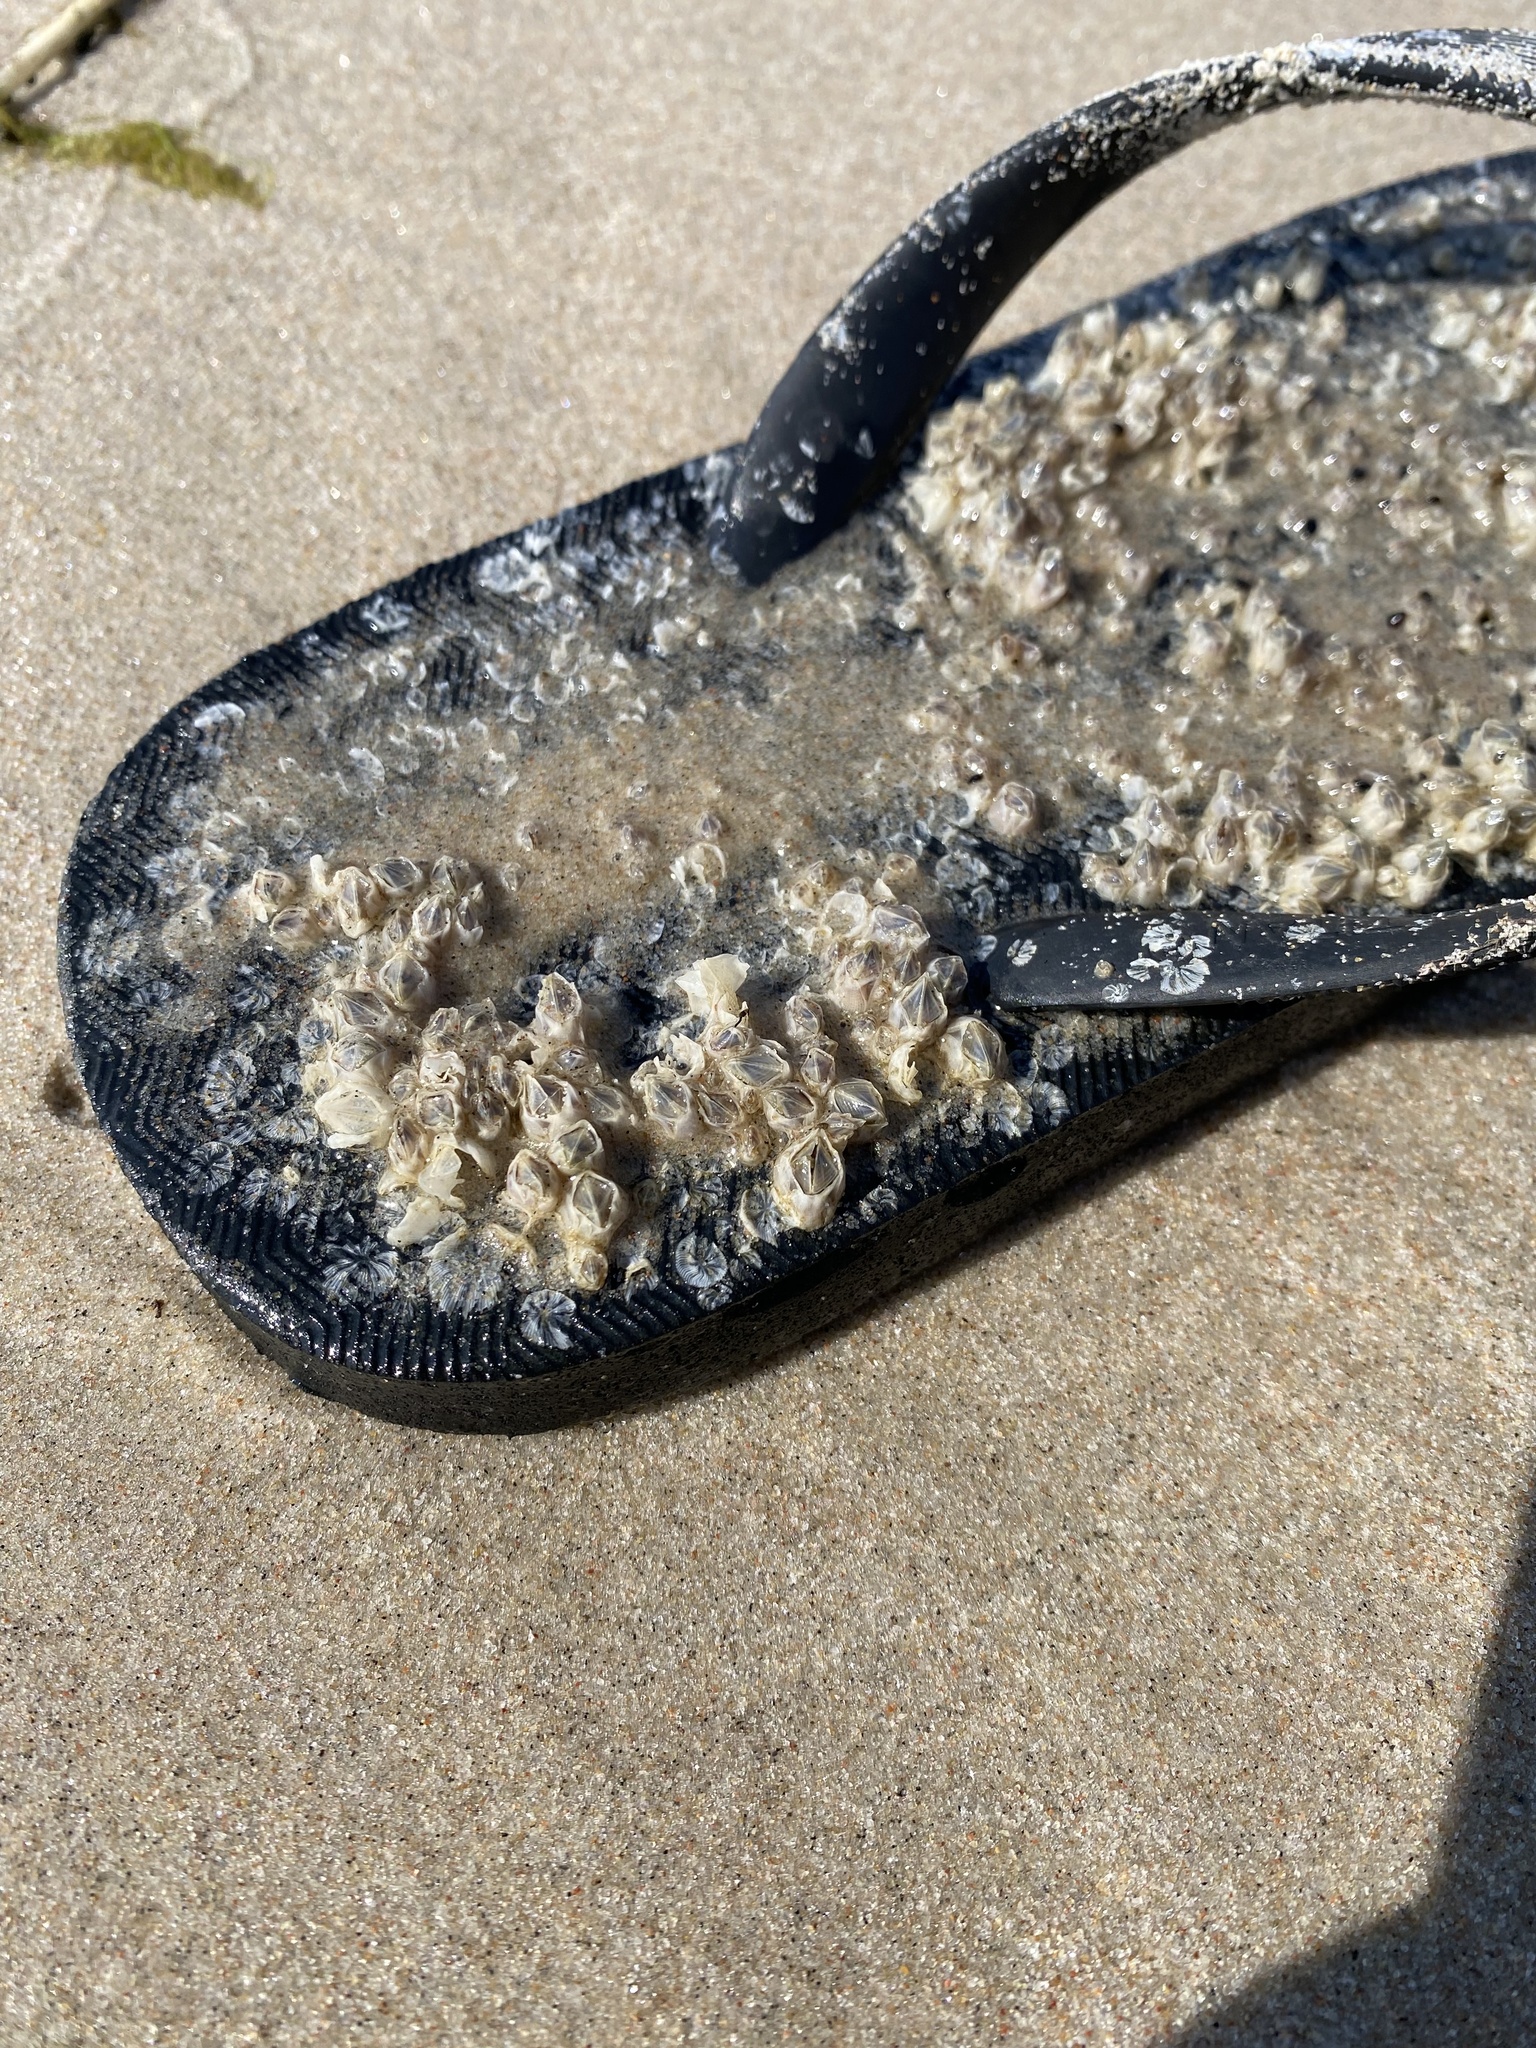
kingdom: Animalia
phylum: Arthropoda
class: Maxillopoda
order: Sessilia
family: Balanidae
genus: Amphibalanus
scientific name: Amphibalanus improvisus
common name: Bay barnacle
